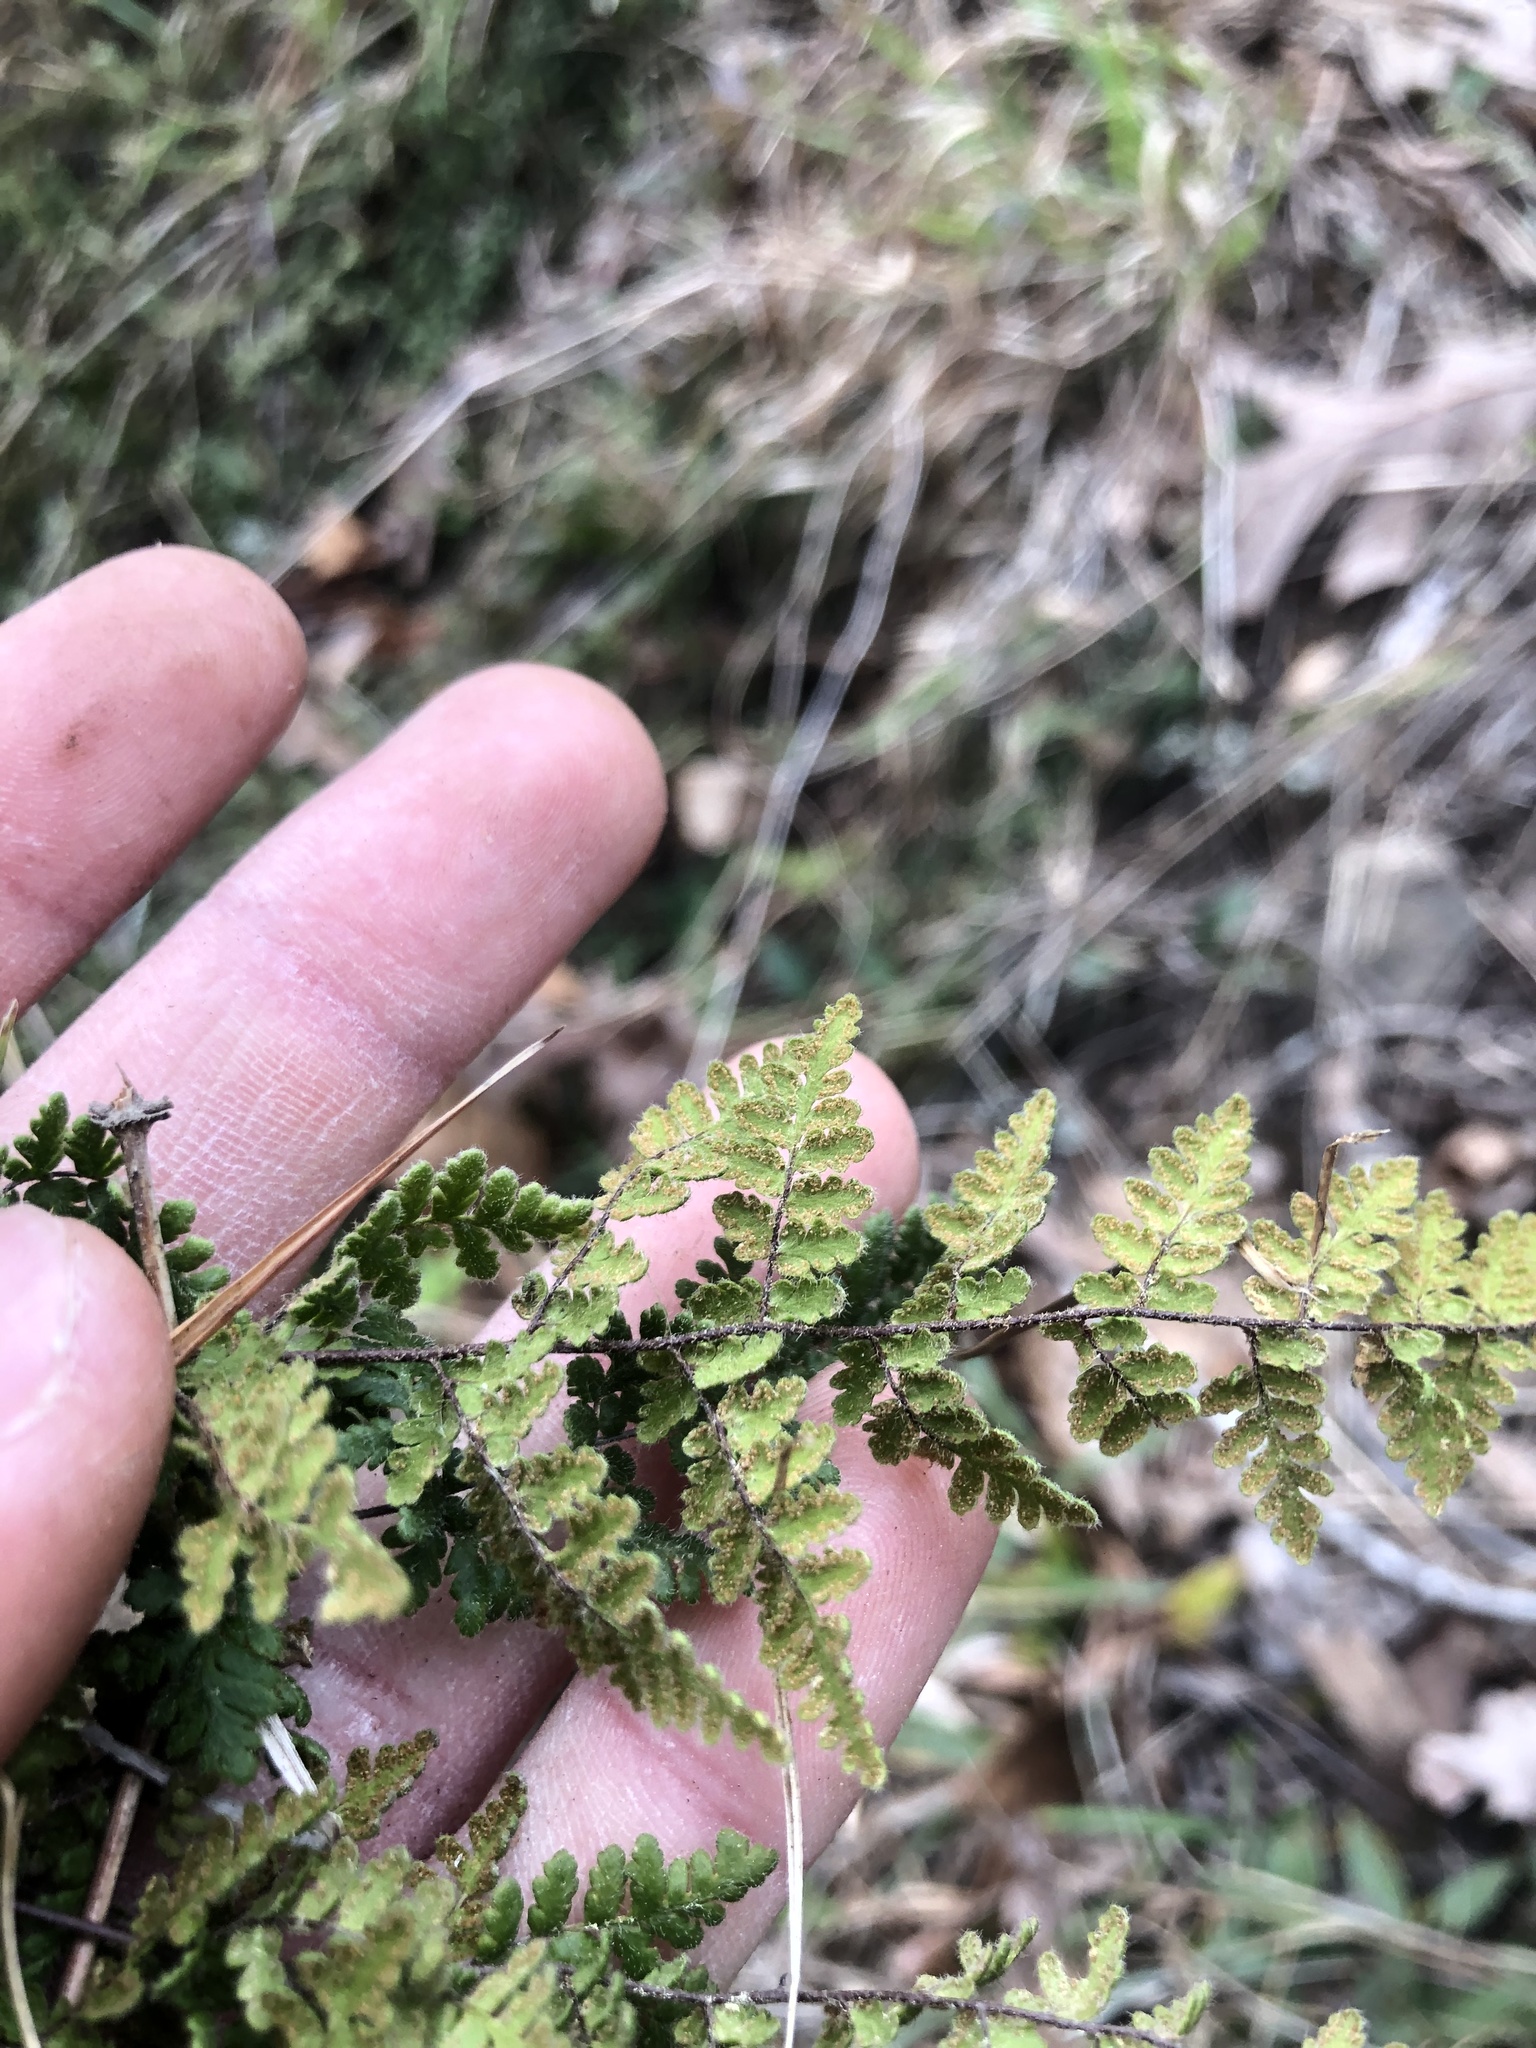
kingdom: Plantae
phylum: Tracheophyta
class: Polypodiopsida
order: Polypodiales
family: Pteridaceae
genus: Myriopteris
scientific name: Myriopteris lanosa
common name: Hairy lip fern
